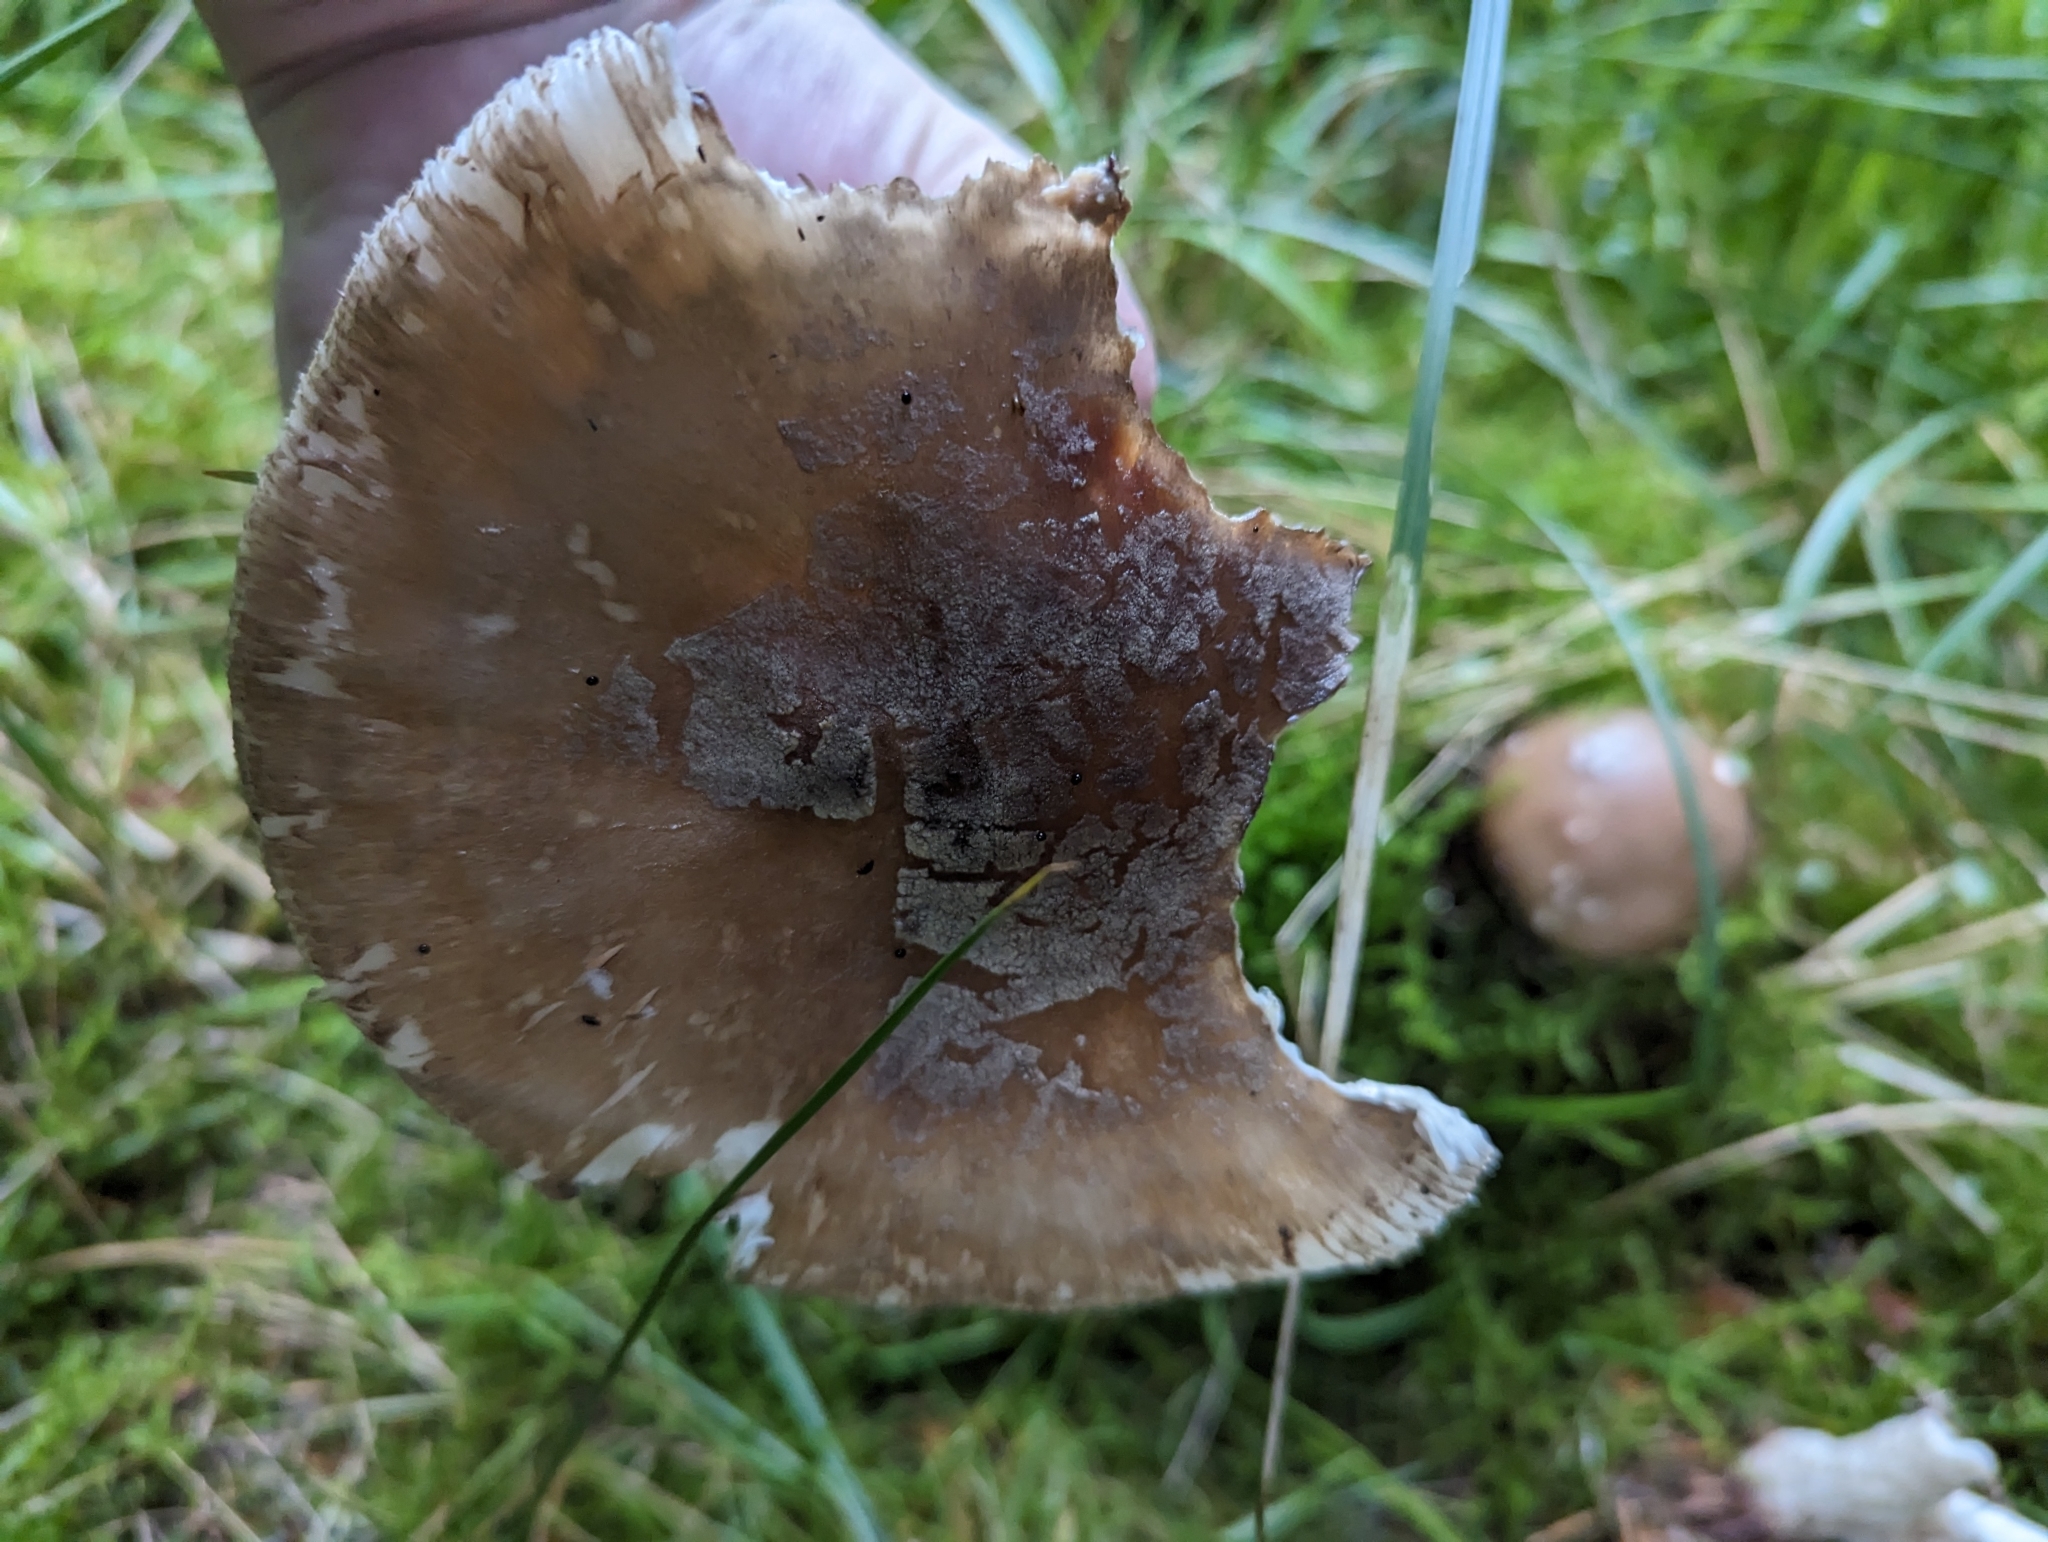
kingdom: Fungi
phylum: Basidiomycota
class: Agaricomycetes
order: Agaricales
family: Amanitaceae
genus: Amanita
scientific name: Amanita rubescens
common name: Blusher
